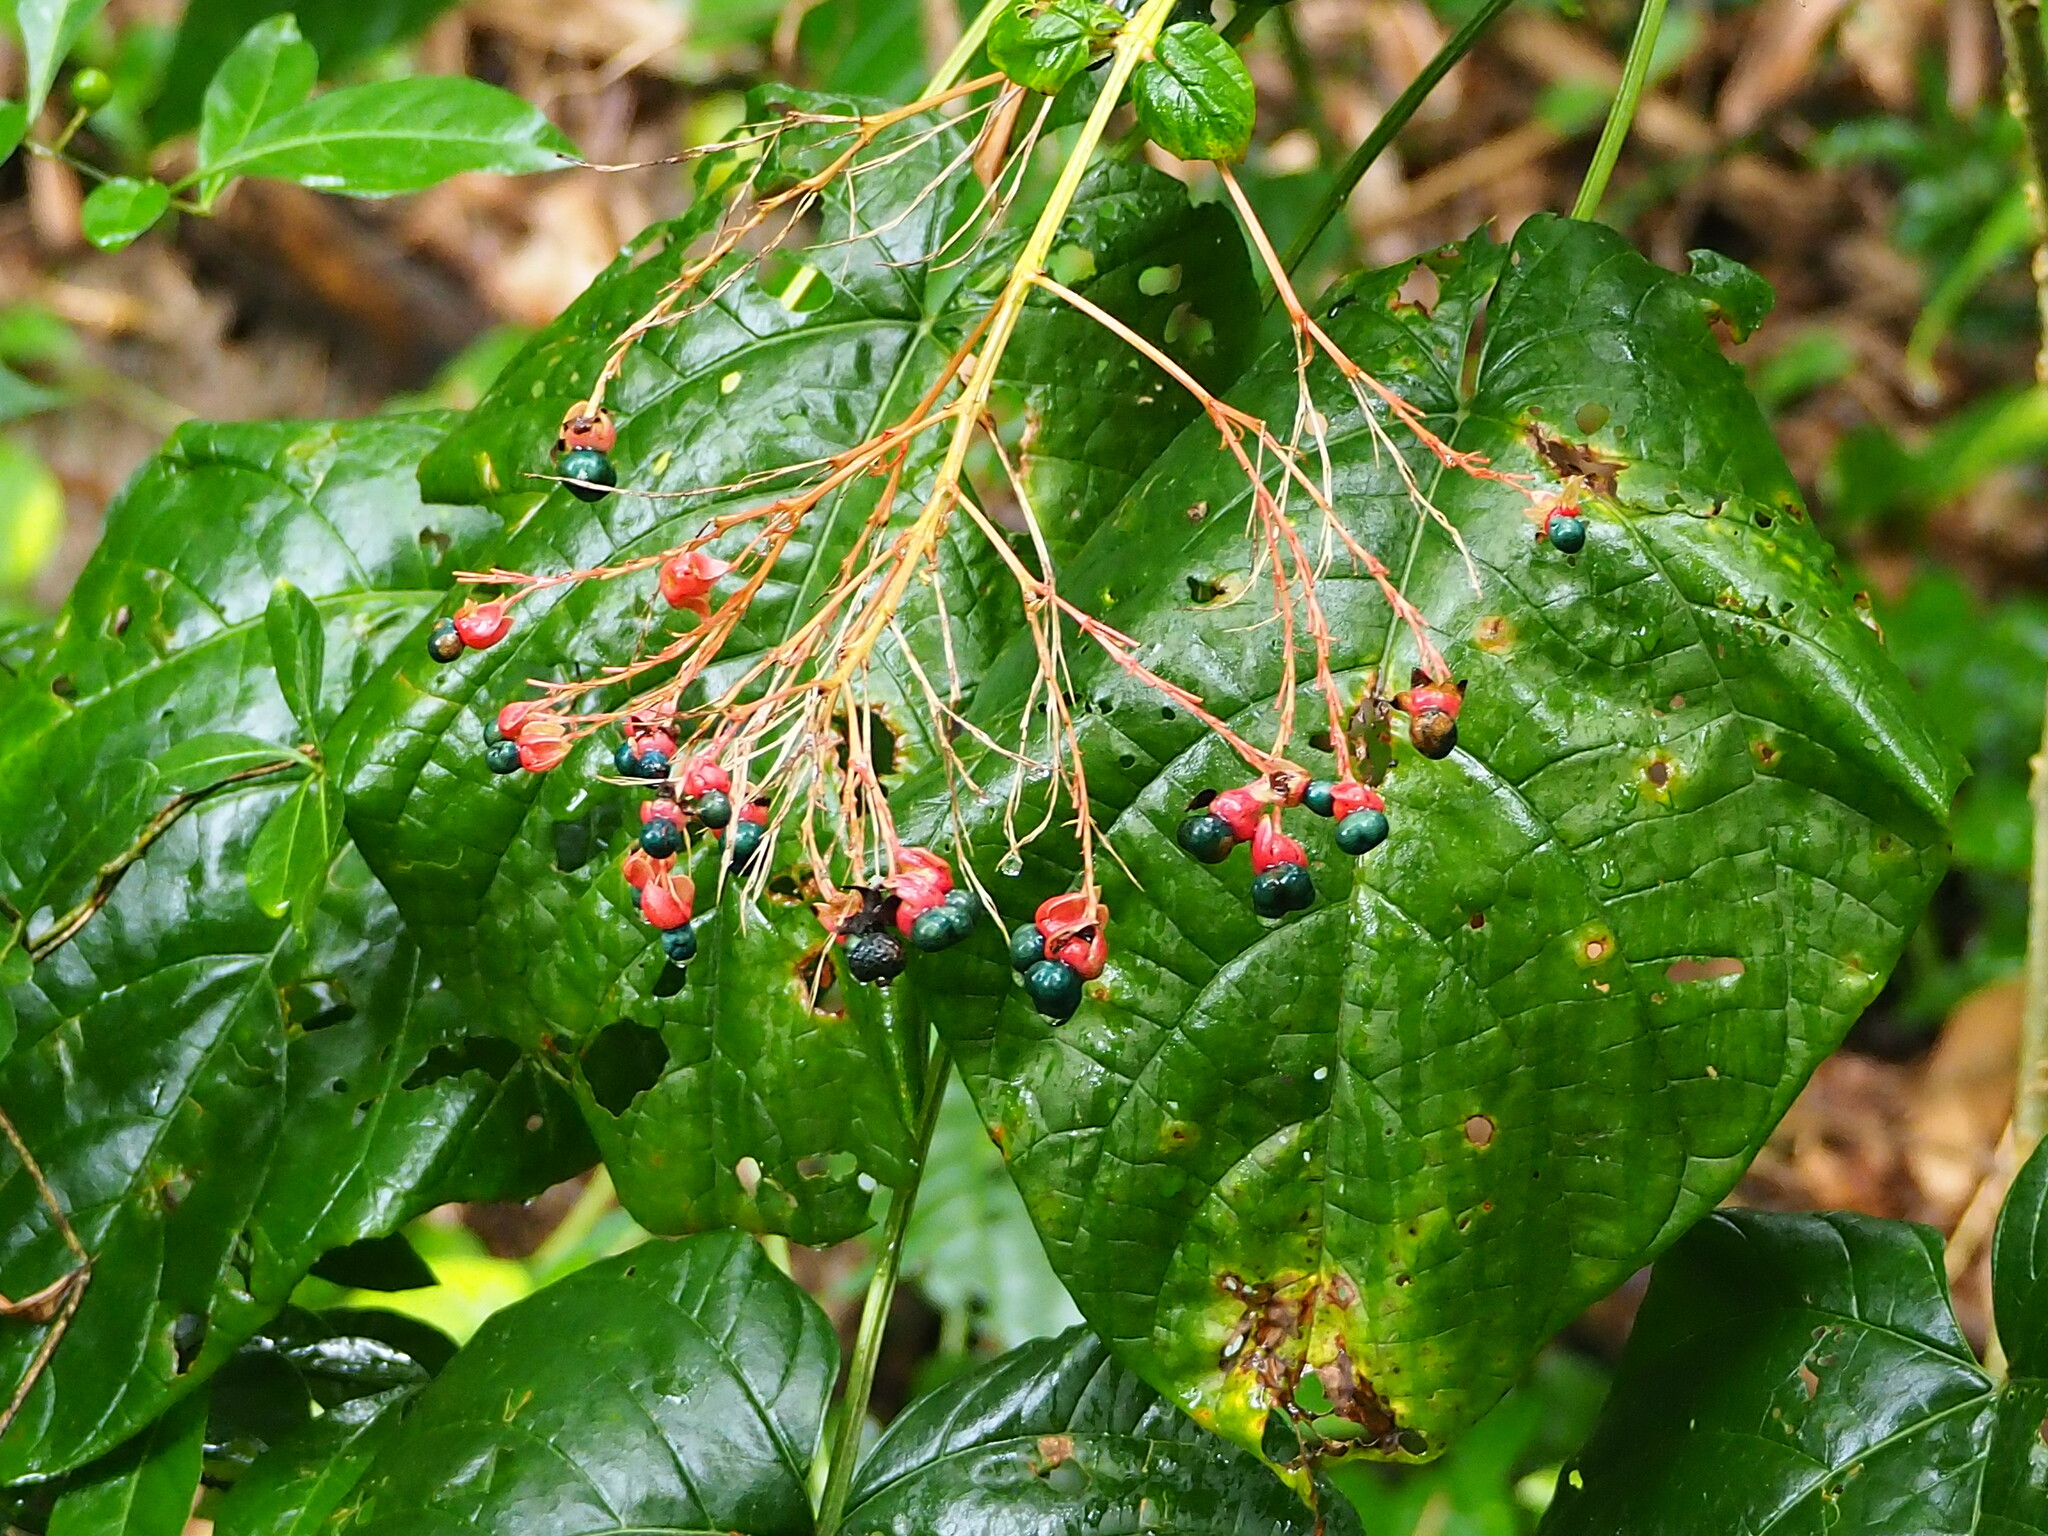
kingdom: Plantae
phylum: Tracheophyta
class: Magnoliopsida
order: Lamiales
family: Lamiaceae
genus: Clerodendrum
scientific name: Clerodendrum japonicum
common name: Japanese glorybower
